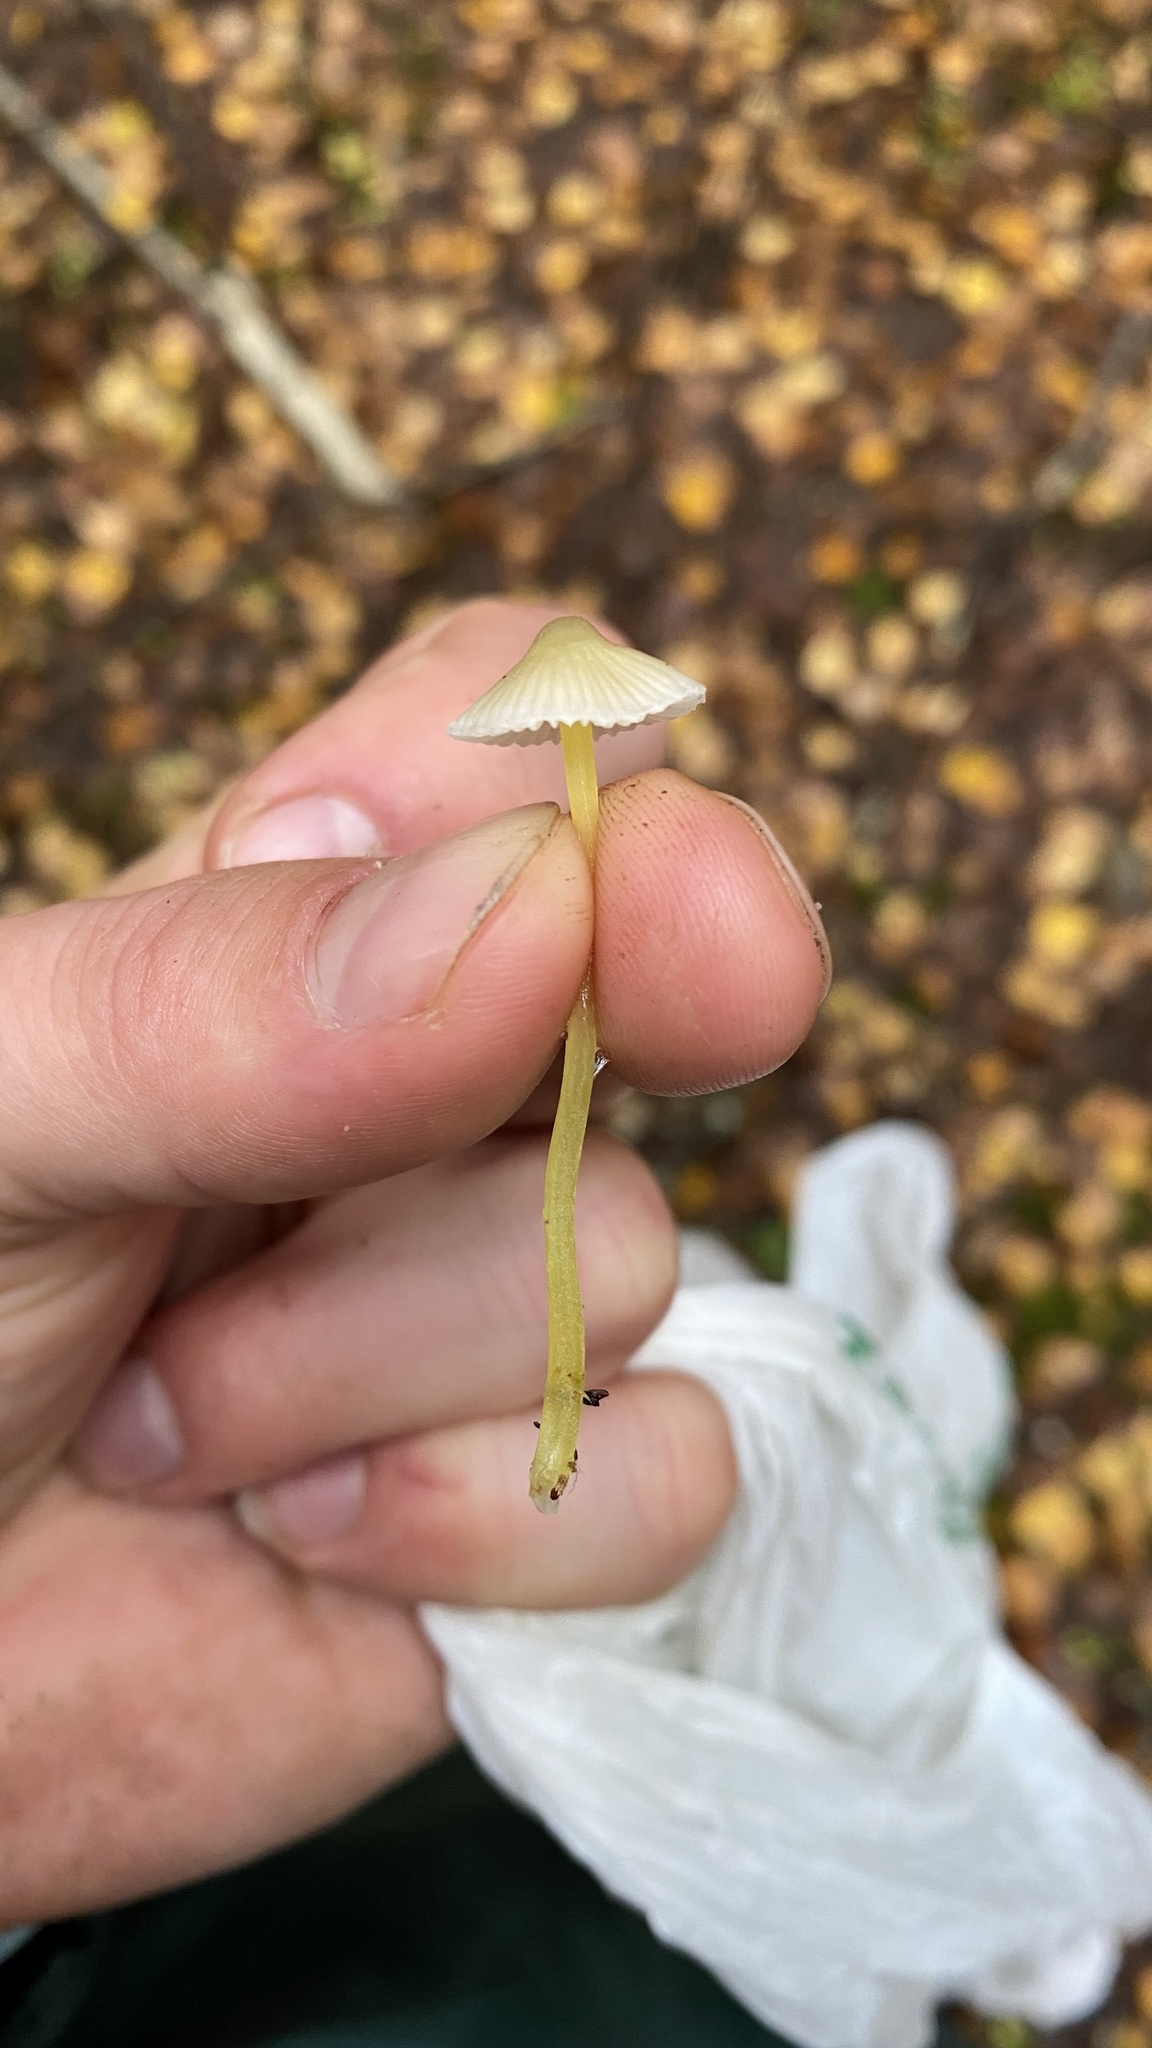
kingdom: Fungi
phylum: Basidiomycota
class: Agaricomycetes
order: Agaricales
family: Mycenaceae
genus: Mycena
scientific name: Mycena epipterygia
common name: Yellowleg bonnet
